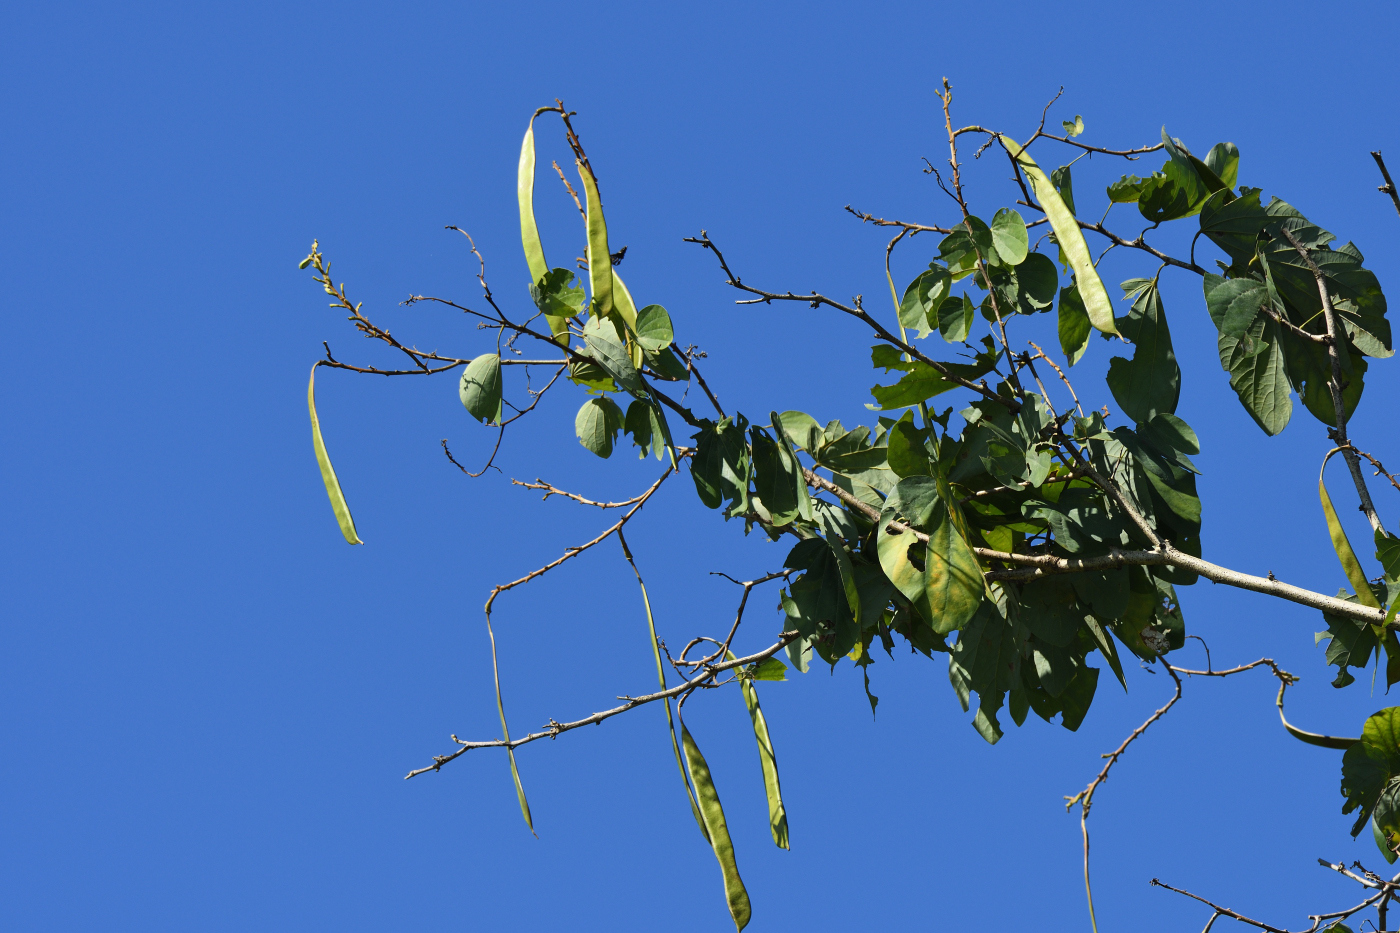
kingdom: Plantae
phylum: Tracheophyta
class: Magnoliopsida
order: Fabales
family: Fabaceae
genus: Bauhinia
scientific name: Bauhinia variegata
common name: Mountain ebony
